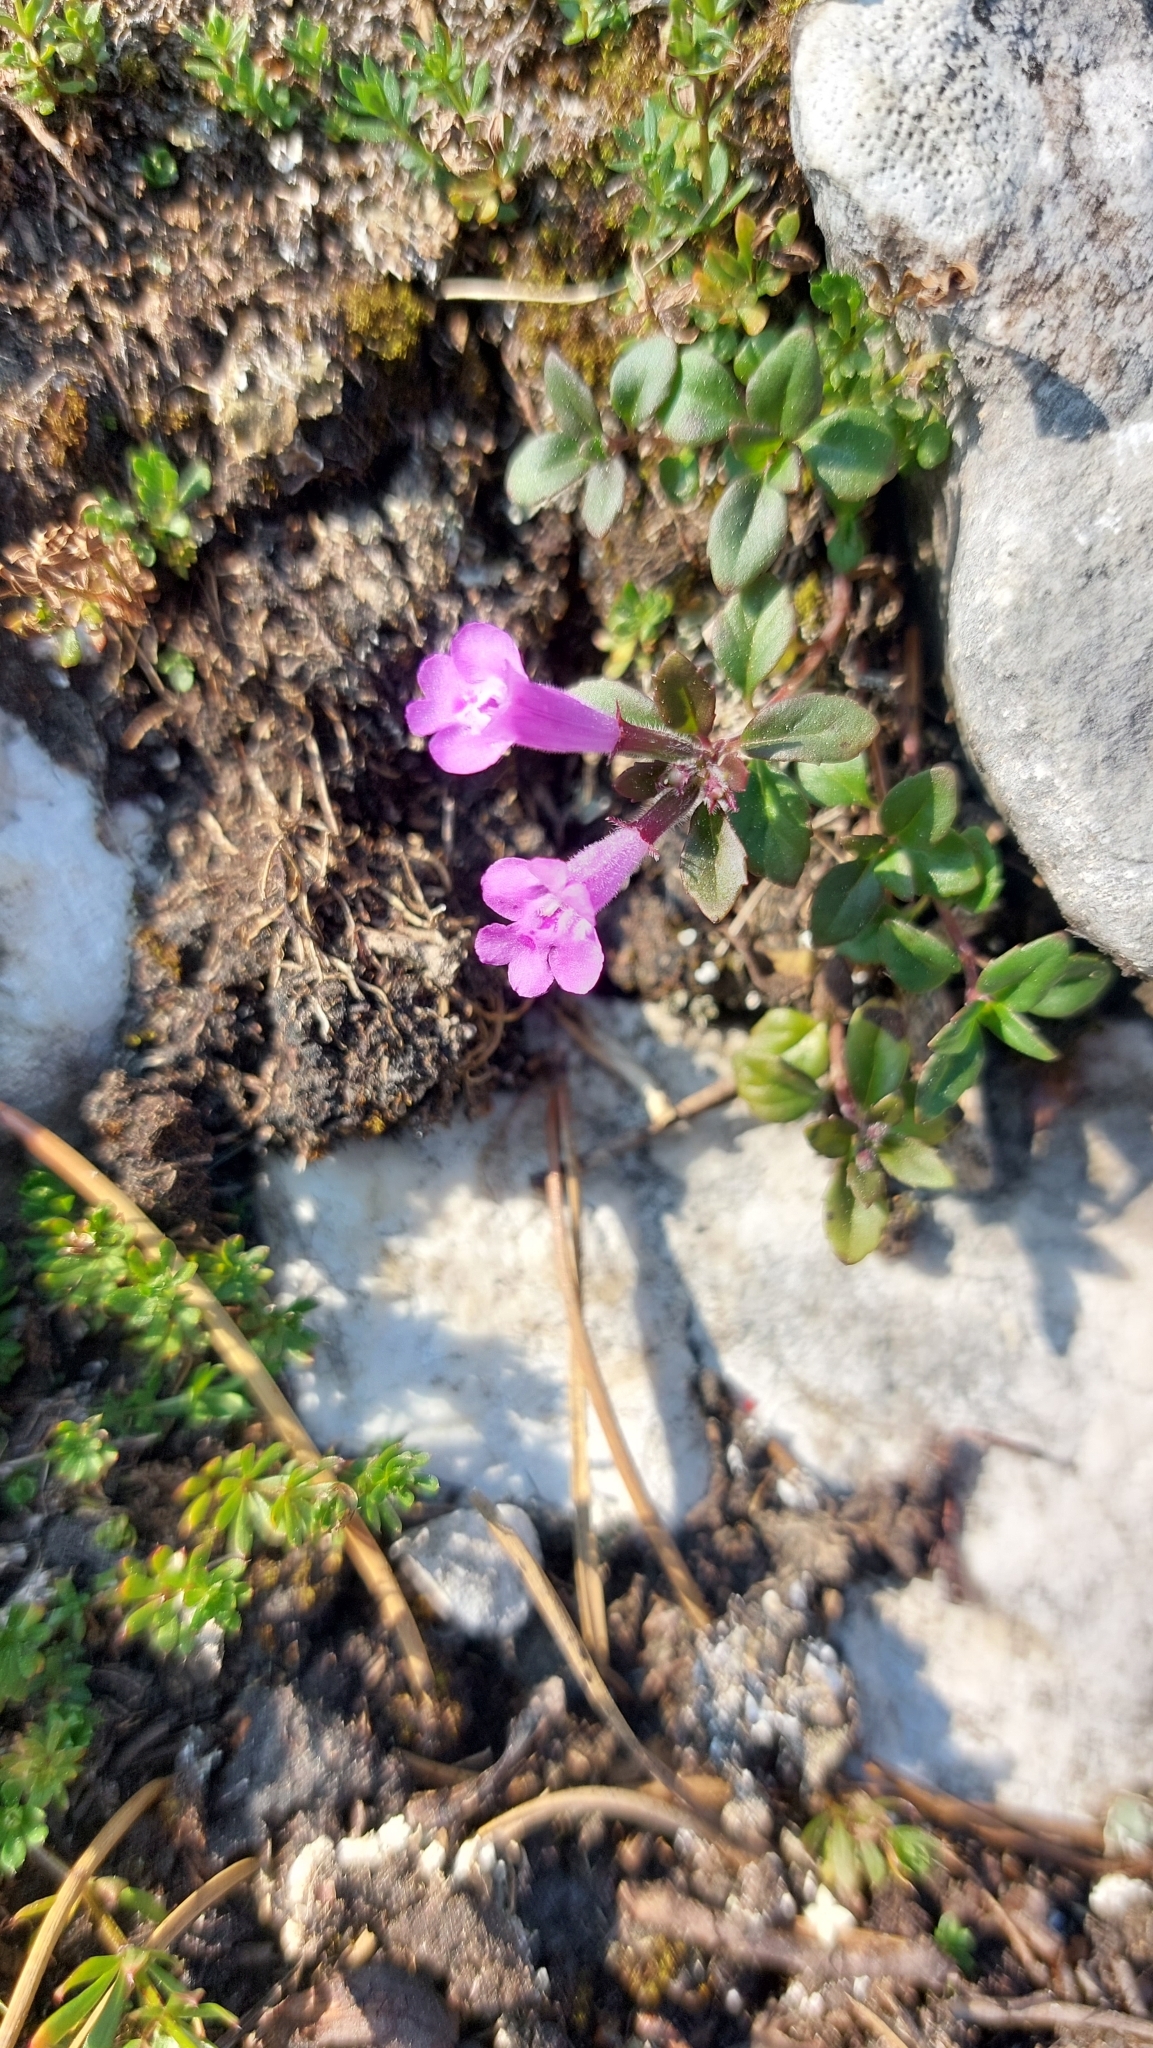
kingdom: Plantae
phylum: Tracheophyta
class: Magnoliopsida
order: Lamiales
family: Lamiaceae
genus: Clinopodium
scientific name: Clinopodium alpinum
